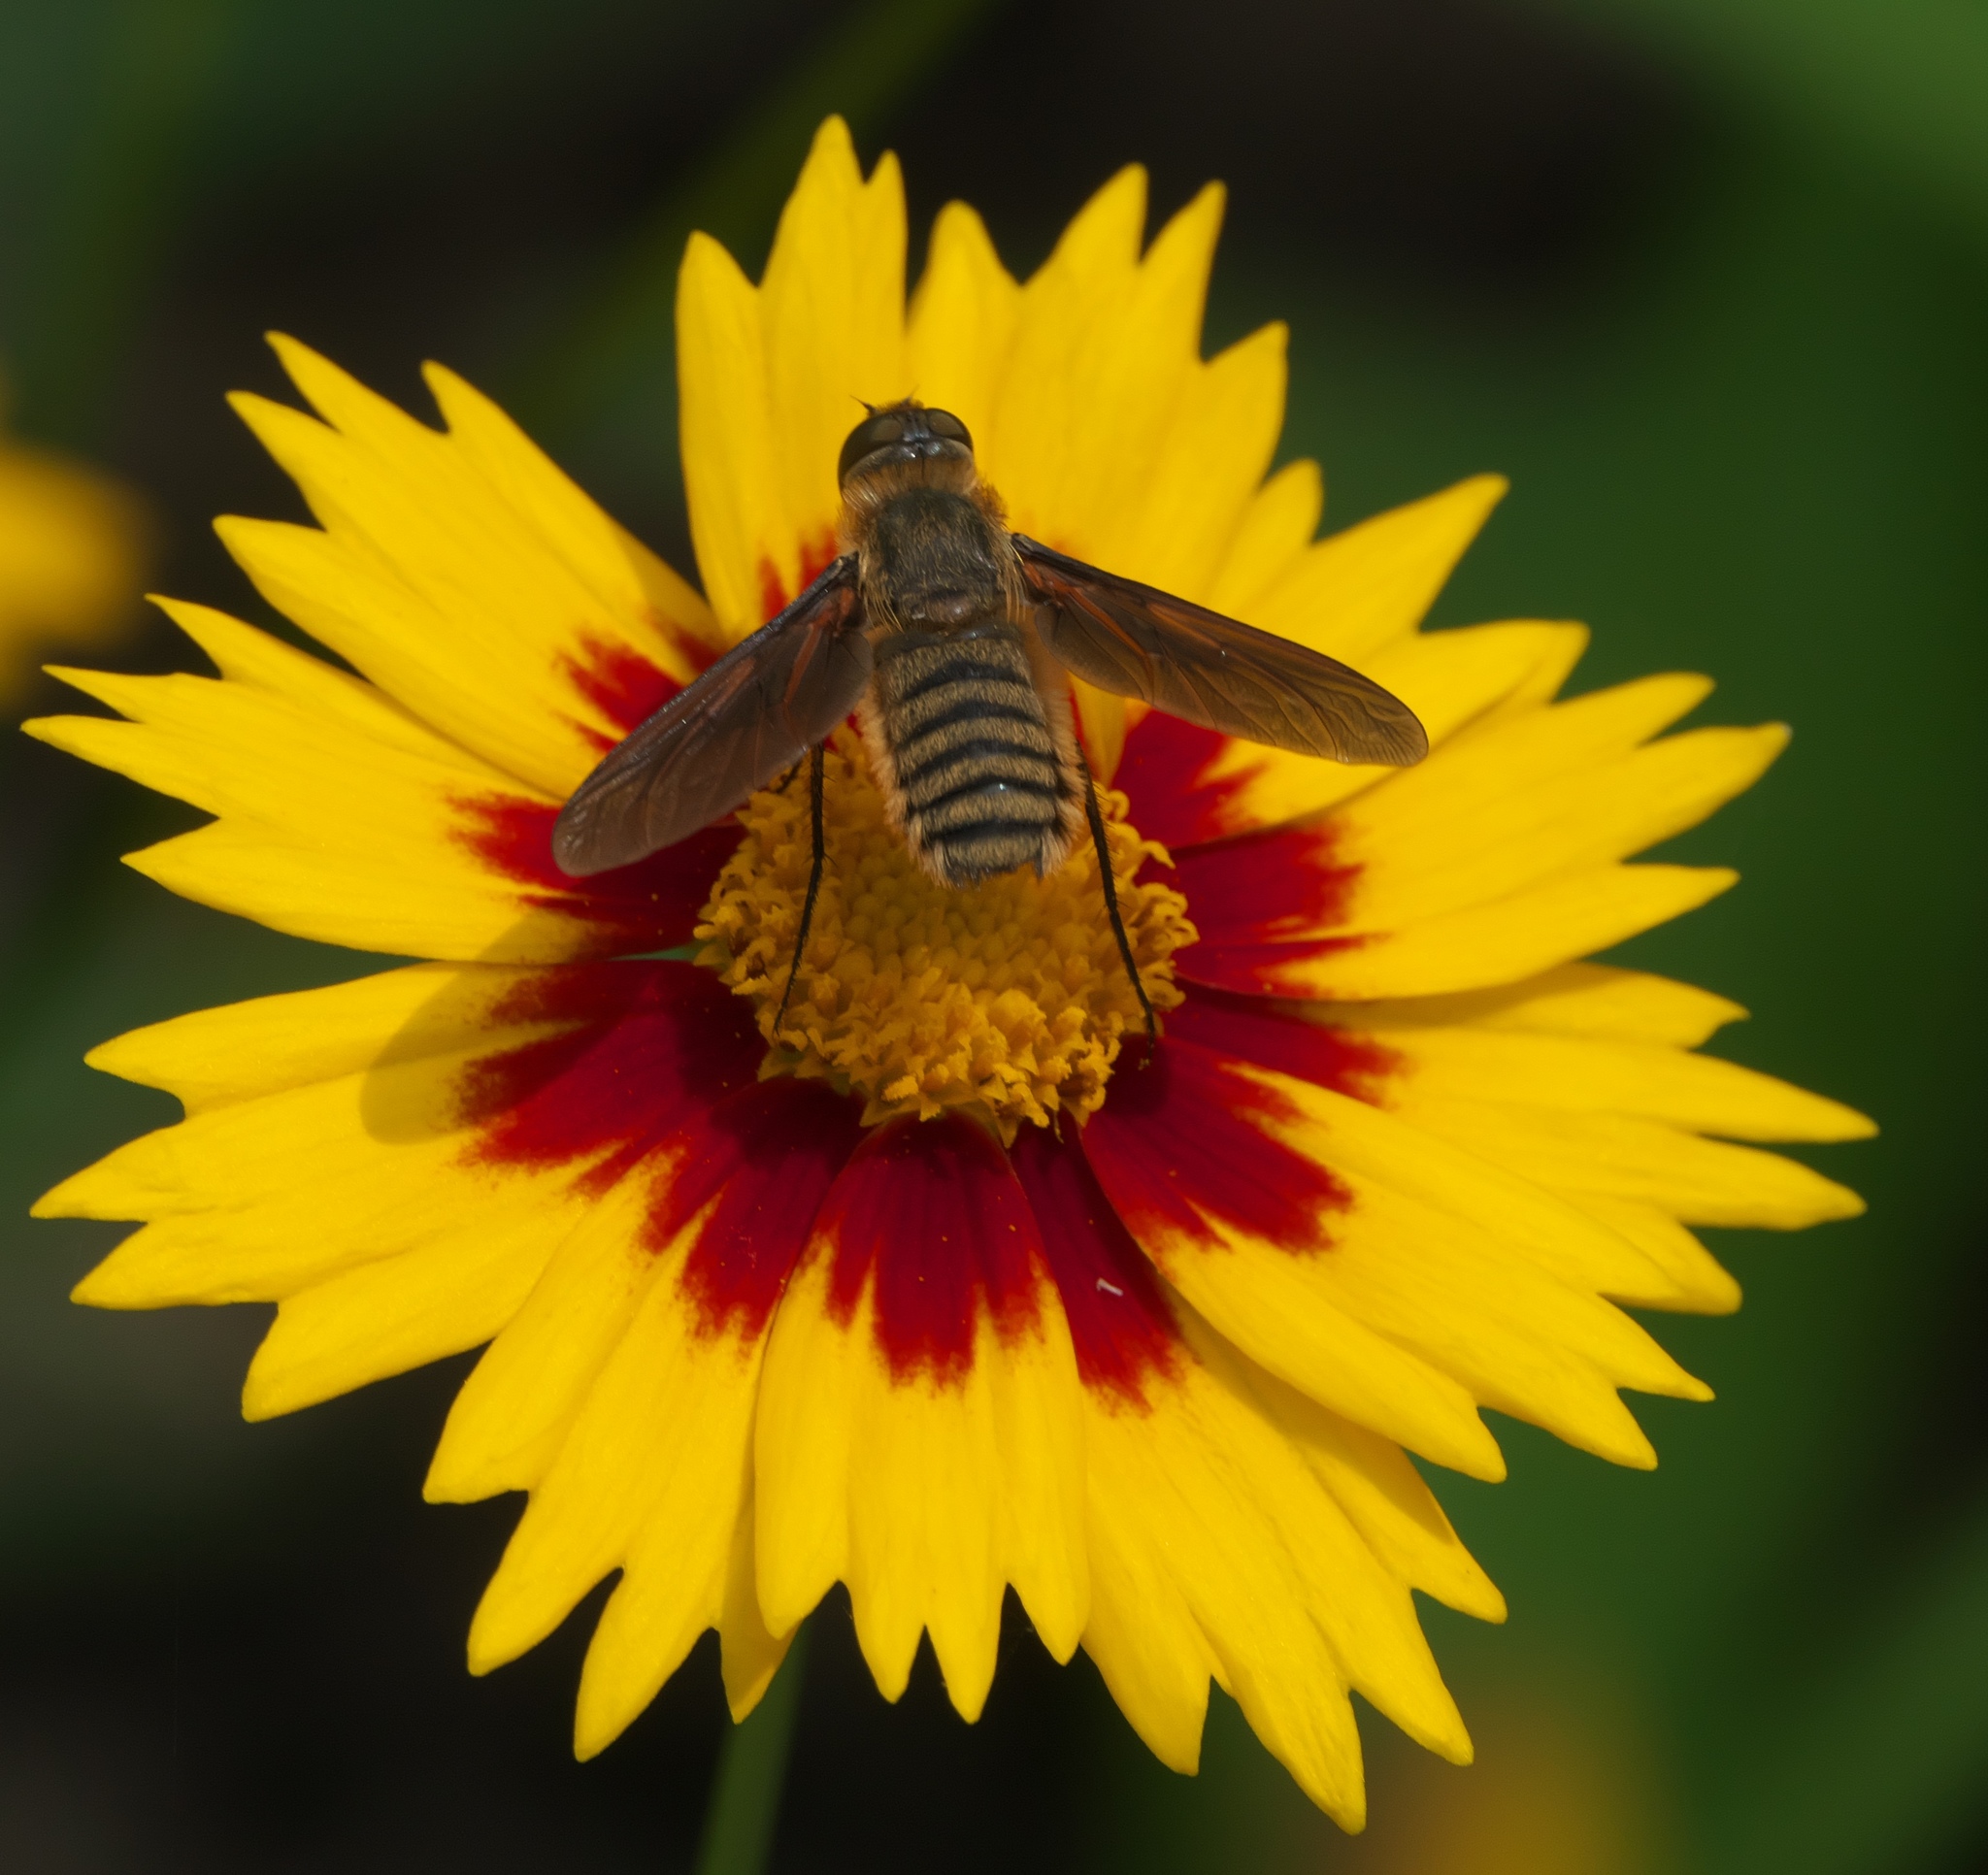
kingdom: Animalia
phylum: Arthropoda
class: Insecta
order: Diptera
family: Bombyliidae
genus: Poecilanthrax
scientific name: Poecilanthrax lucifer
